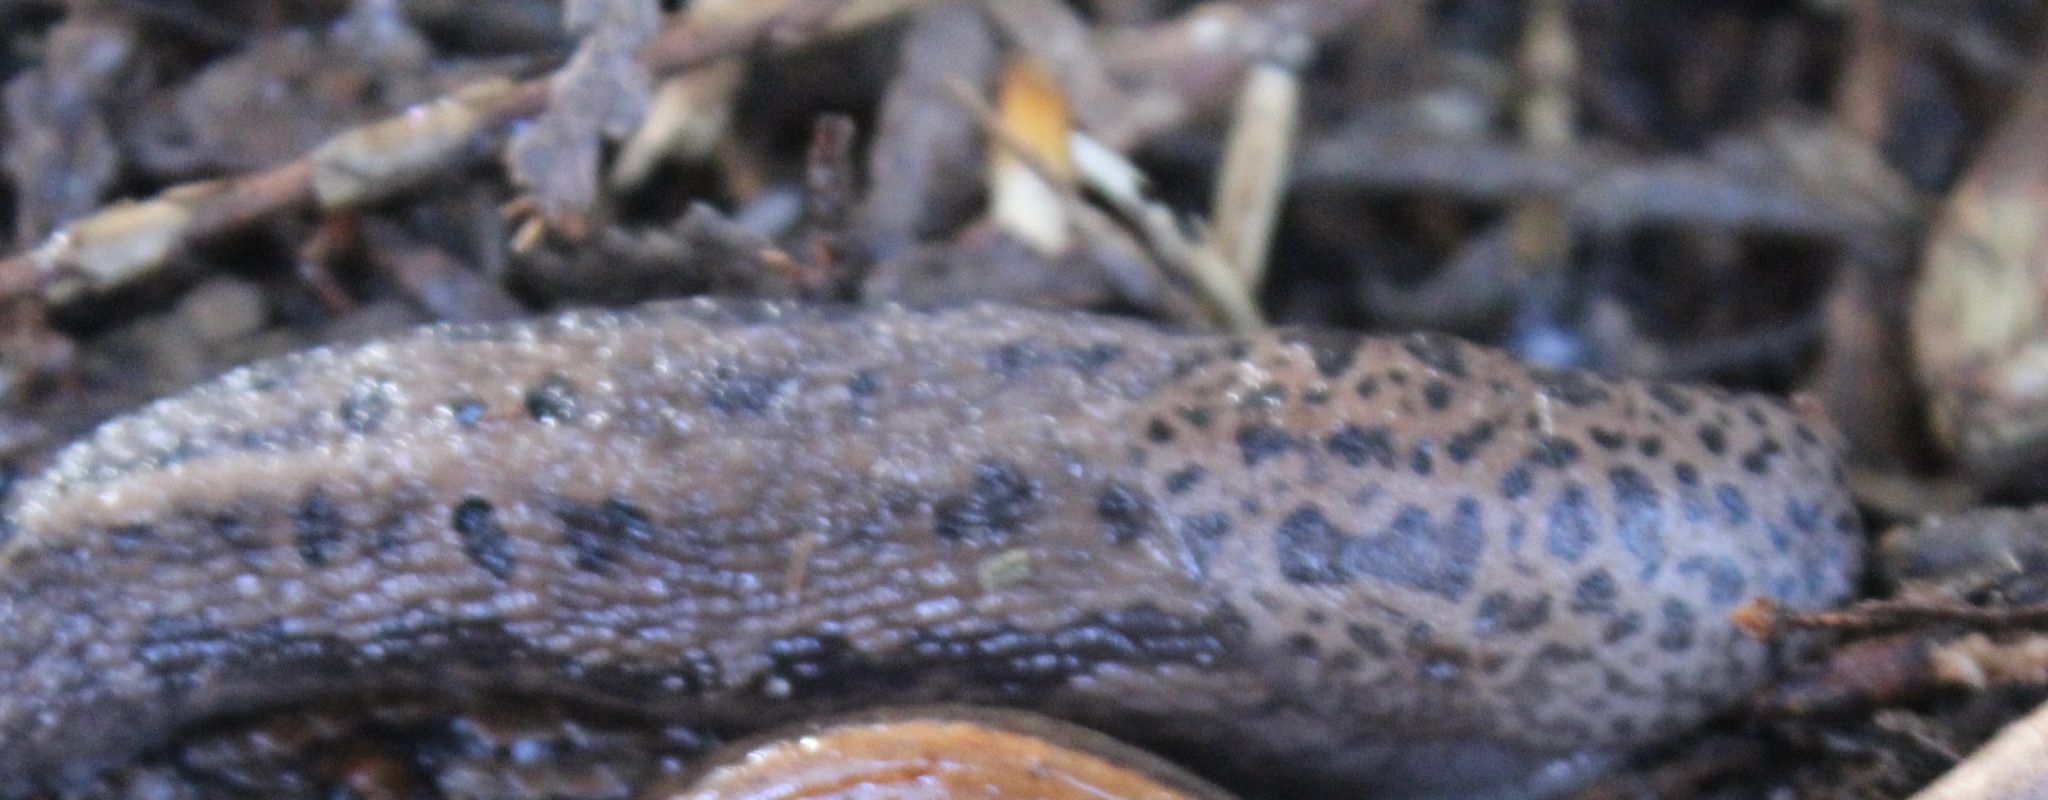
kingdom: Animalia
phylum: Mollusca
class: Gastropoda
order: Stylommatophora
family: Limacidae
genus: Limax
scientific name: Limax maximus
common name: Great grey slug
